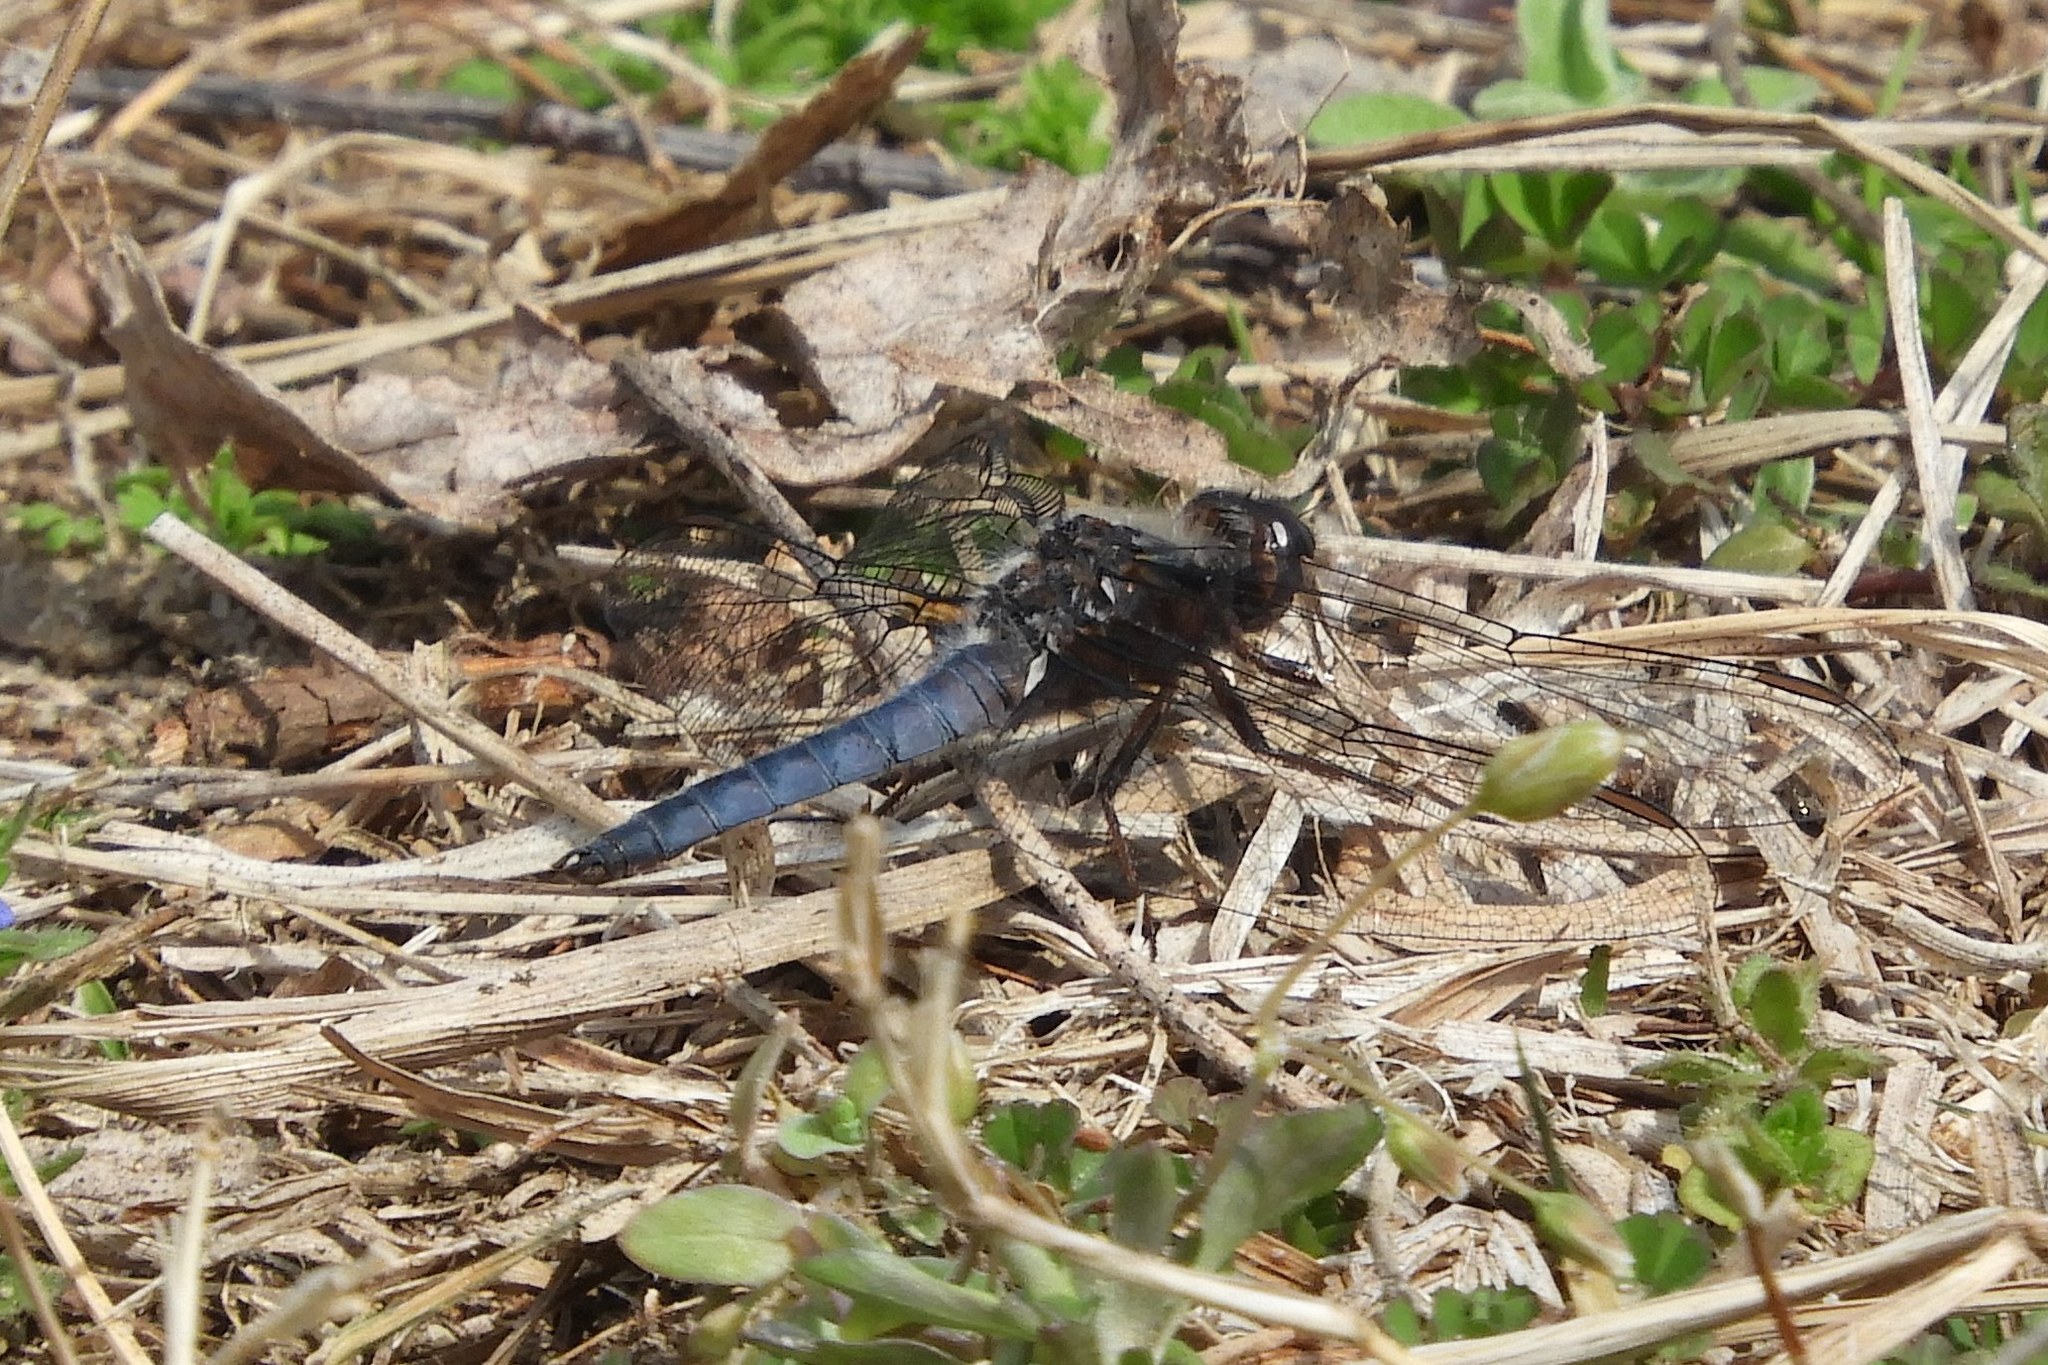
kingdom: Animalia
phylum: Arthropoda
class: Insecta
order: Odonata
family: Libellulidae
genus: Ladona
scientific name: Ladona deplanata
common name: Blue corporal
